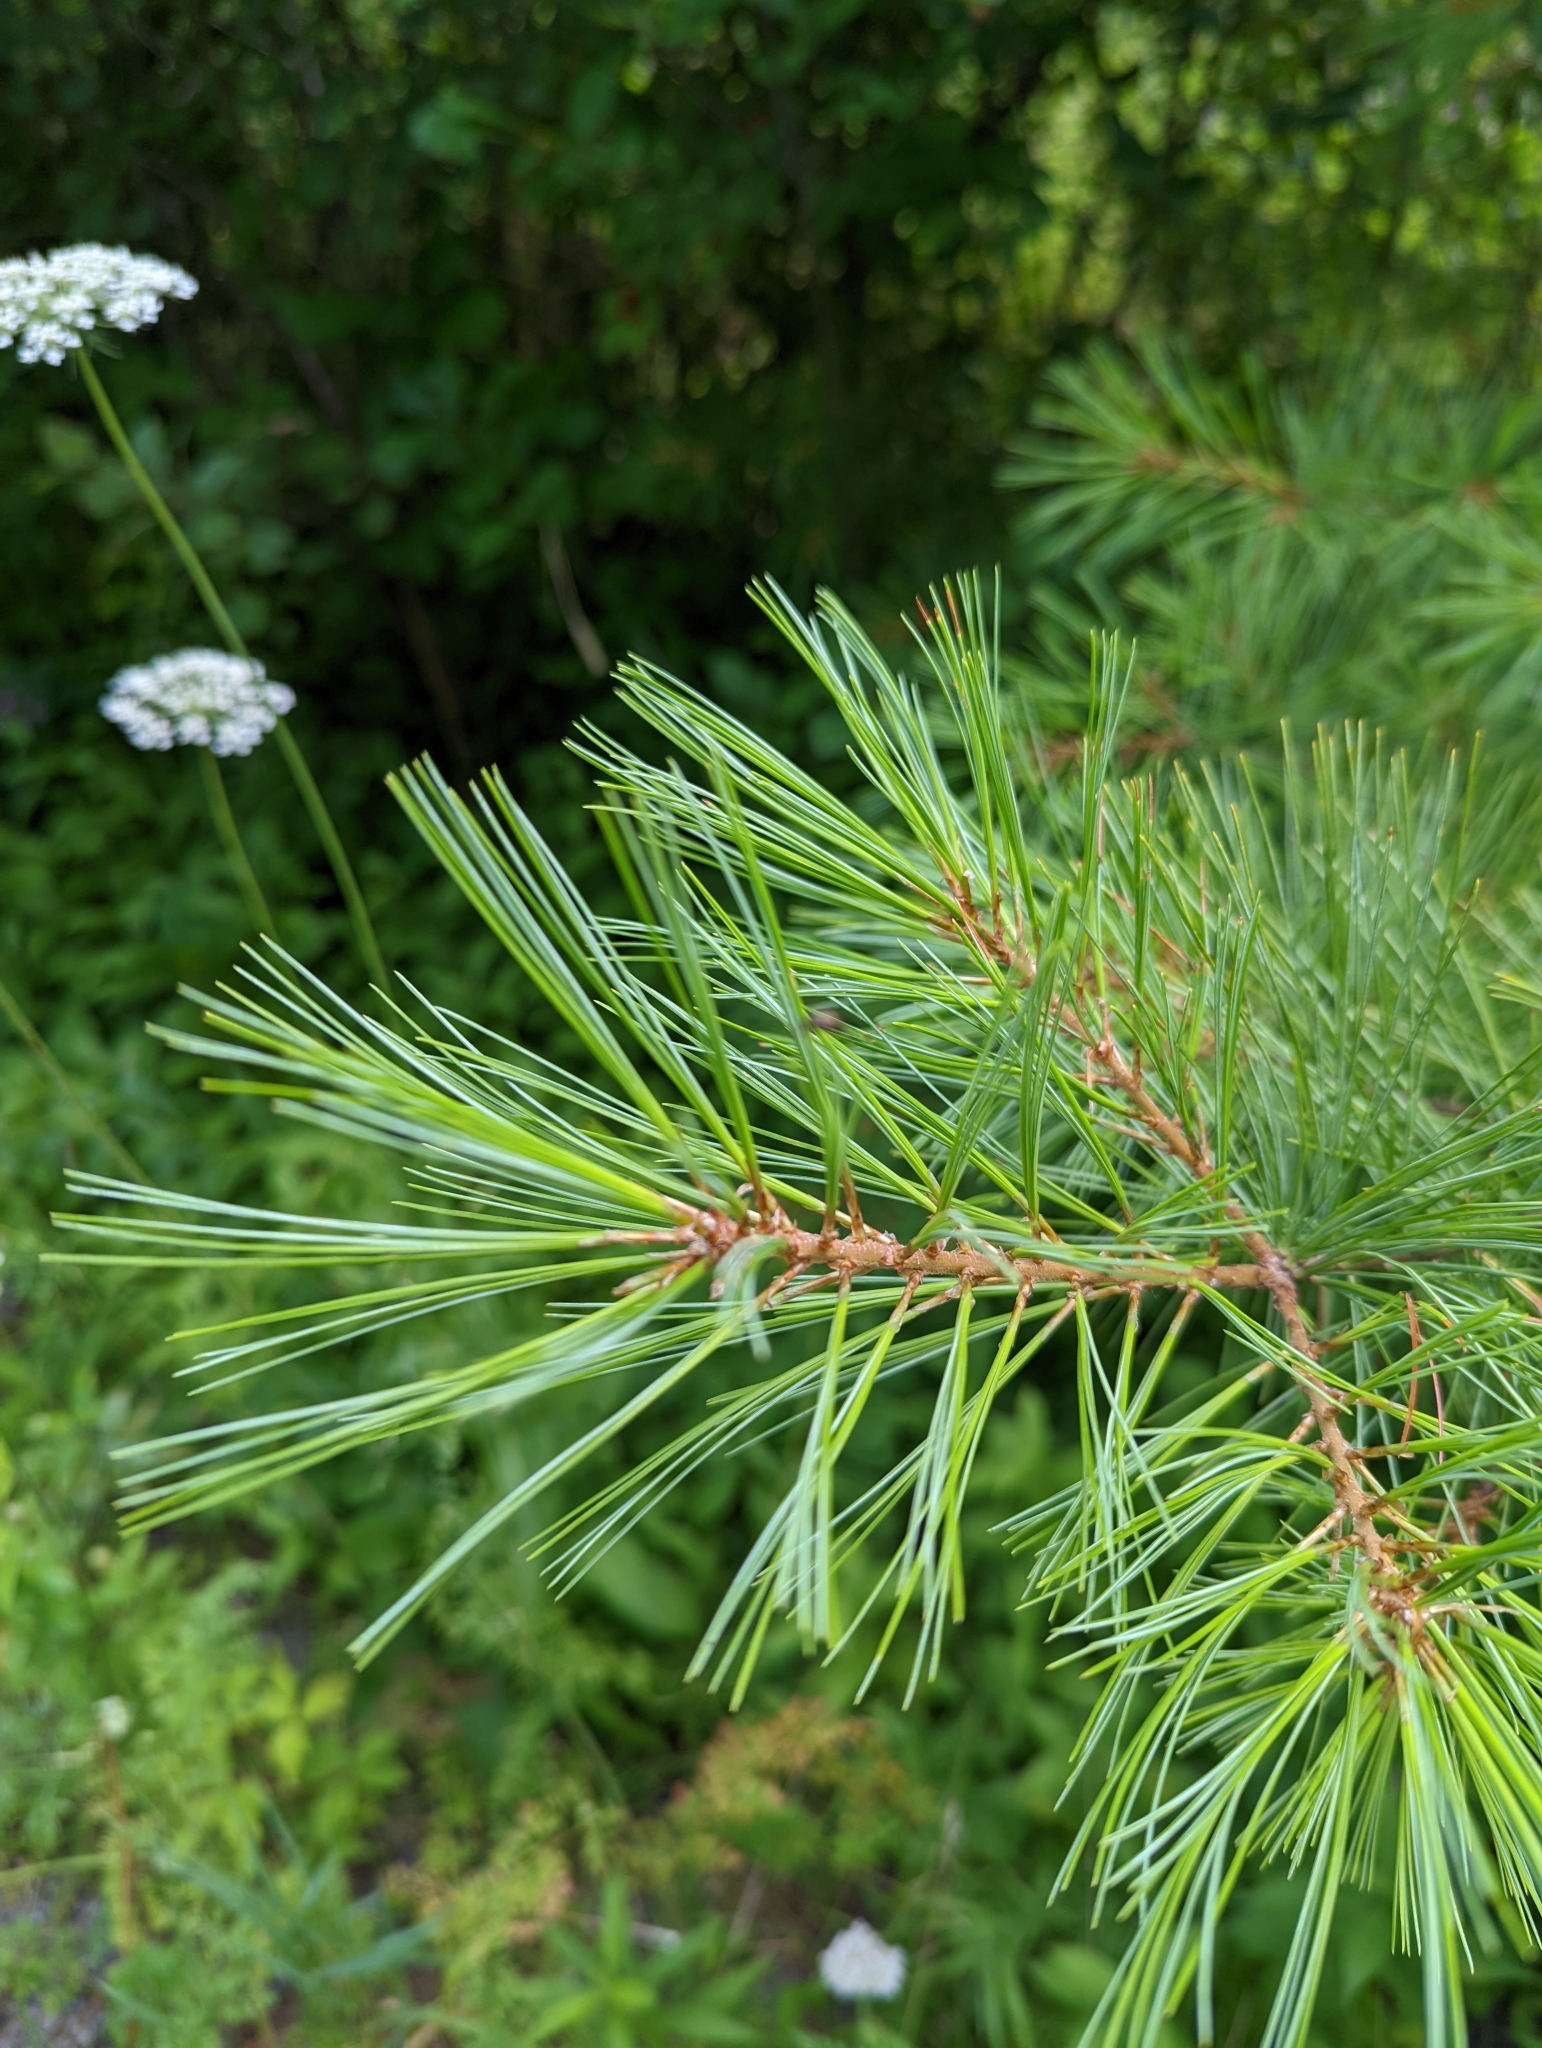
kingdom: Plantae
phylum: Tracheophyta
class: Pinopsida
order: Pinales
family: Pinaceae
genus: Pinus
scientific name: Pinus strobus
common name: Weymouth pine
